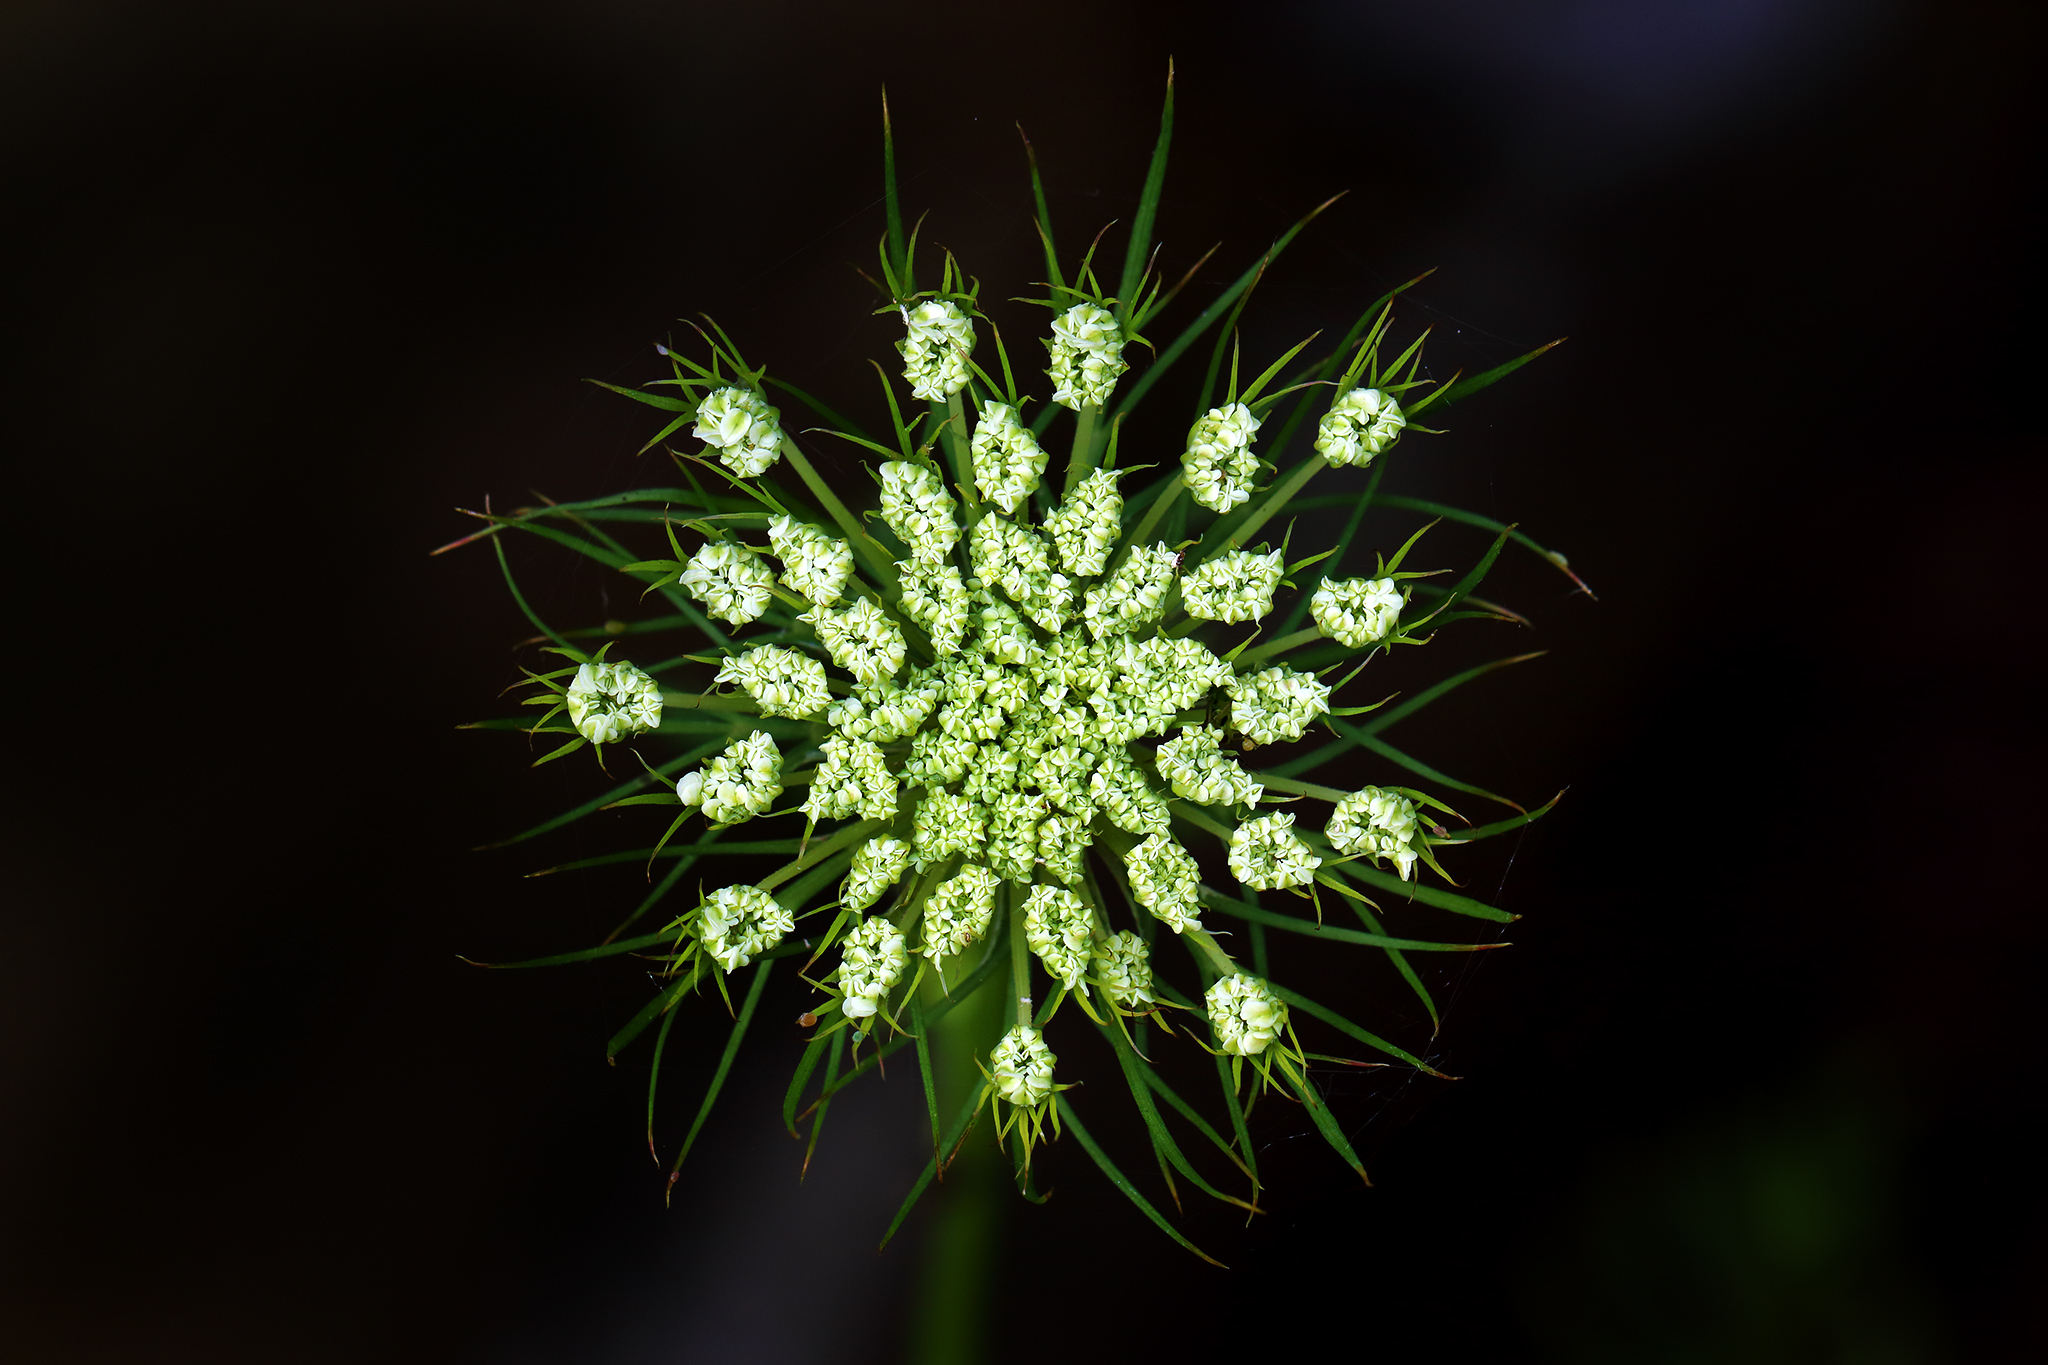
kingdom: Plantae
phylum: Tracheophyta
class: Magnoliopsida
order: Apiales
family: Apiaceae
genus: Daucus
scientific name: Daucus carota
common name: Wild carrot
